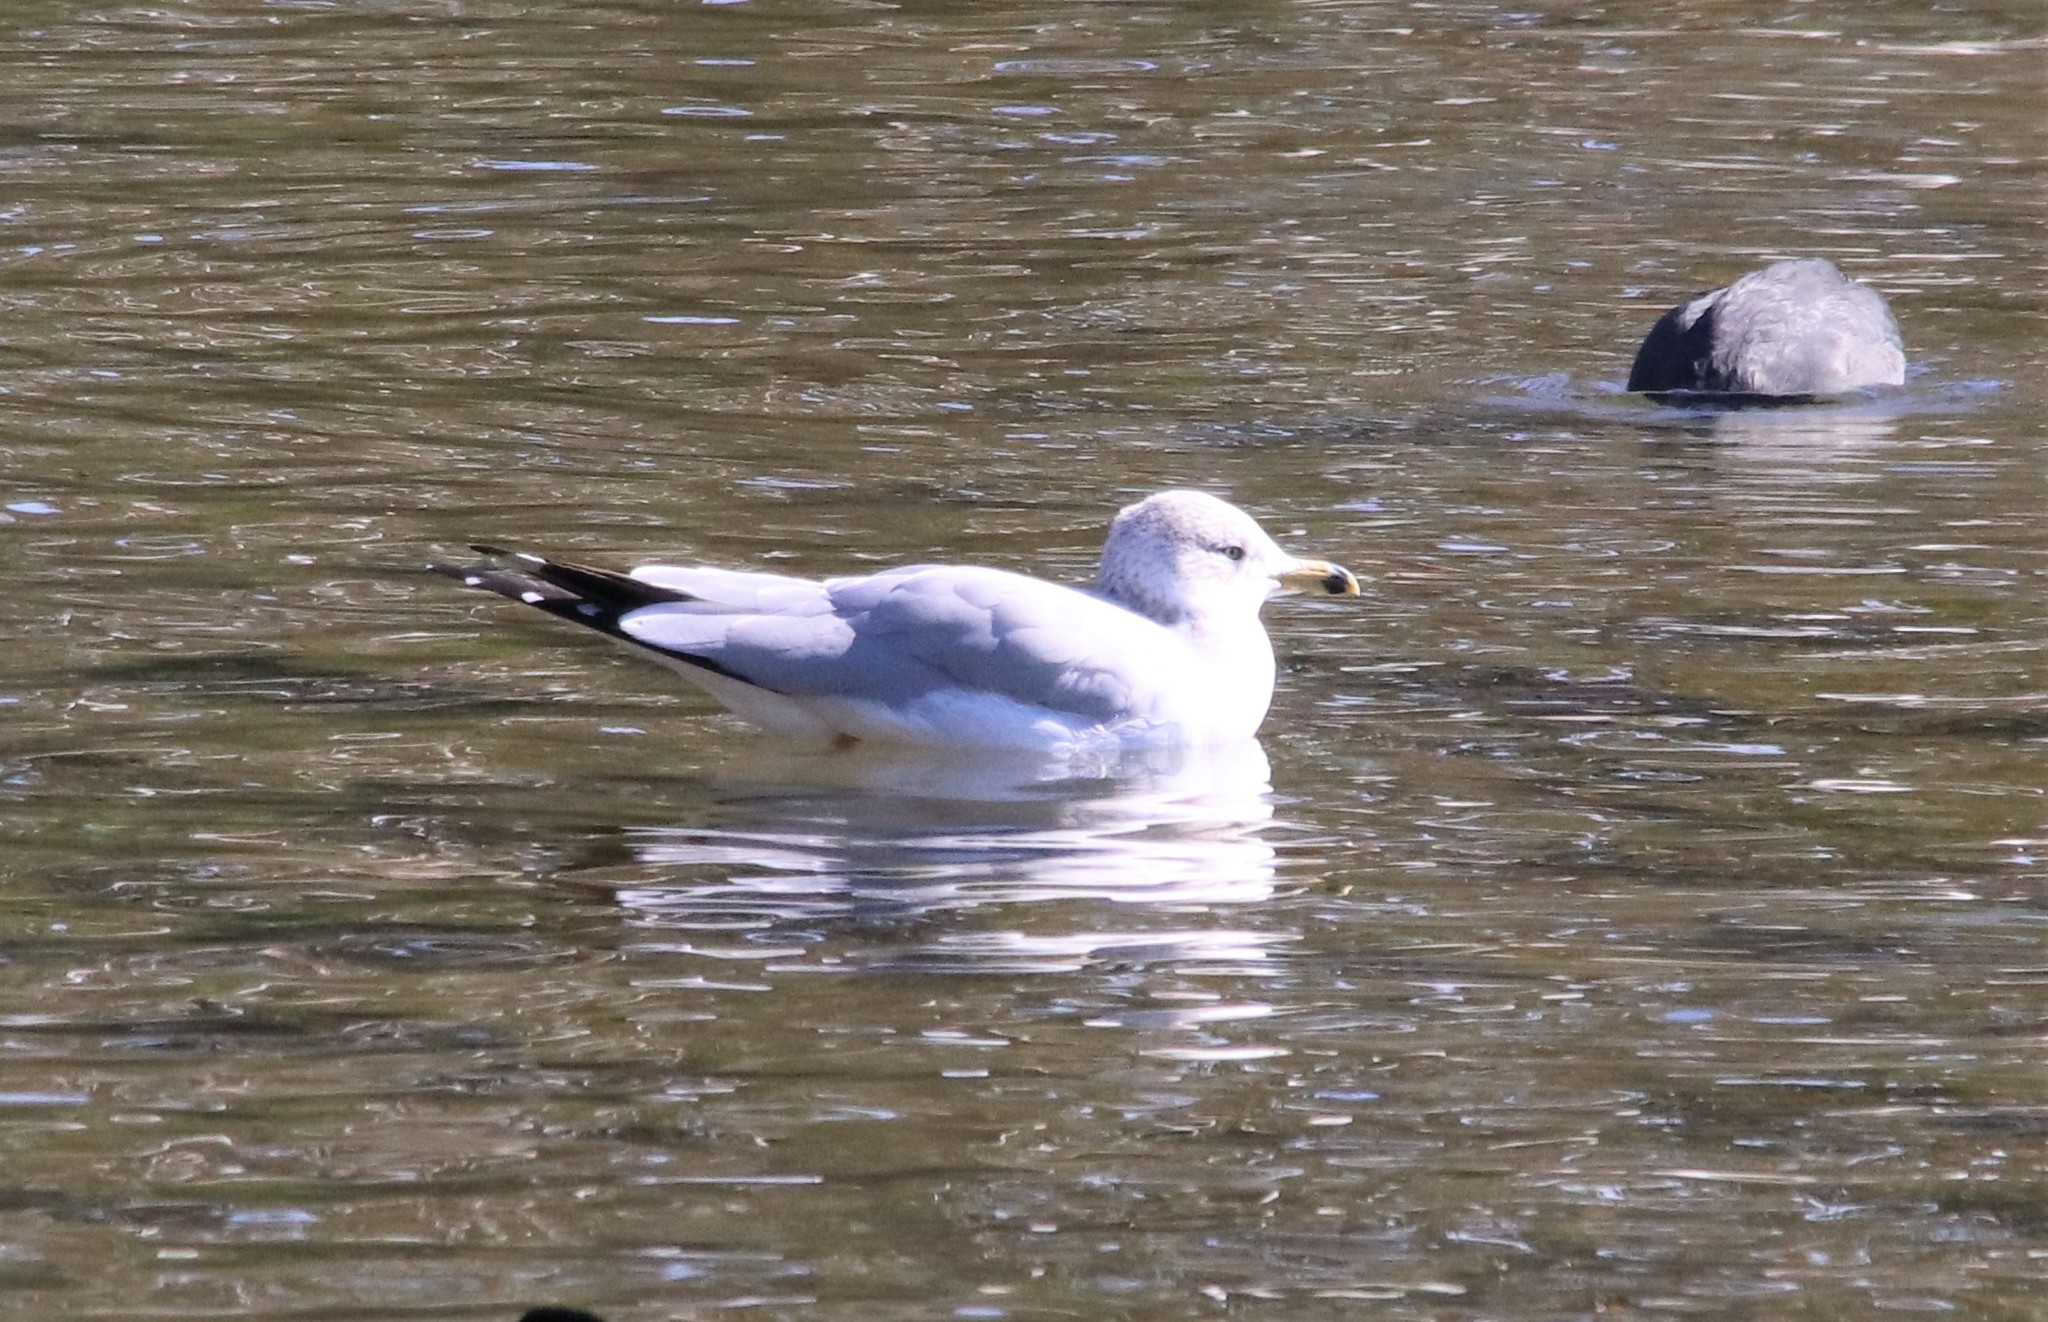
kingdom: Animalia
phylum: Chordata
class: Aves
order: Charadriiformes
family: Laridae
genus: Larus
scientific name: Larus delawarensis
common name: Ring-billed gull
